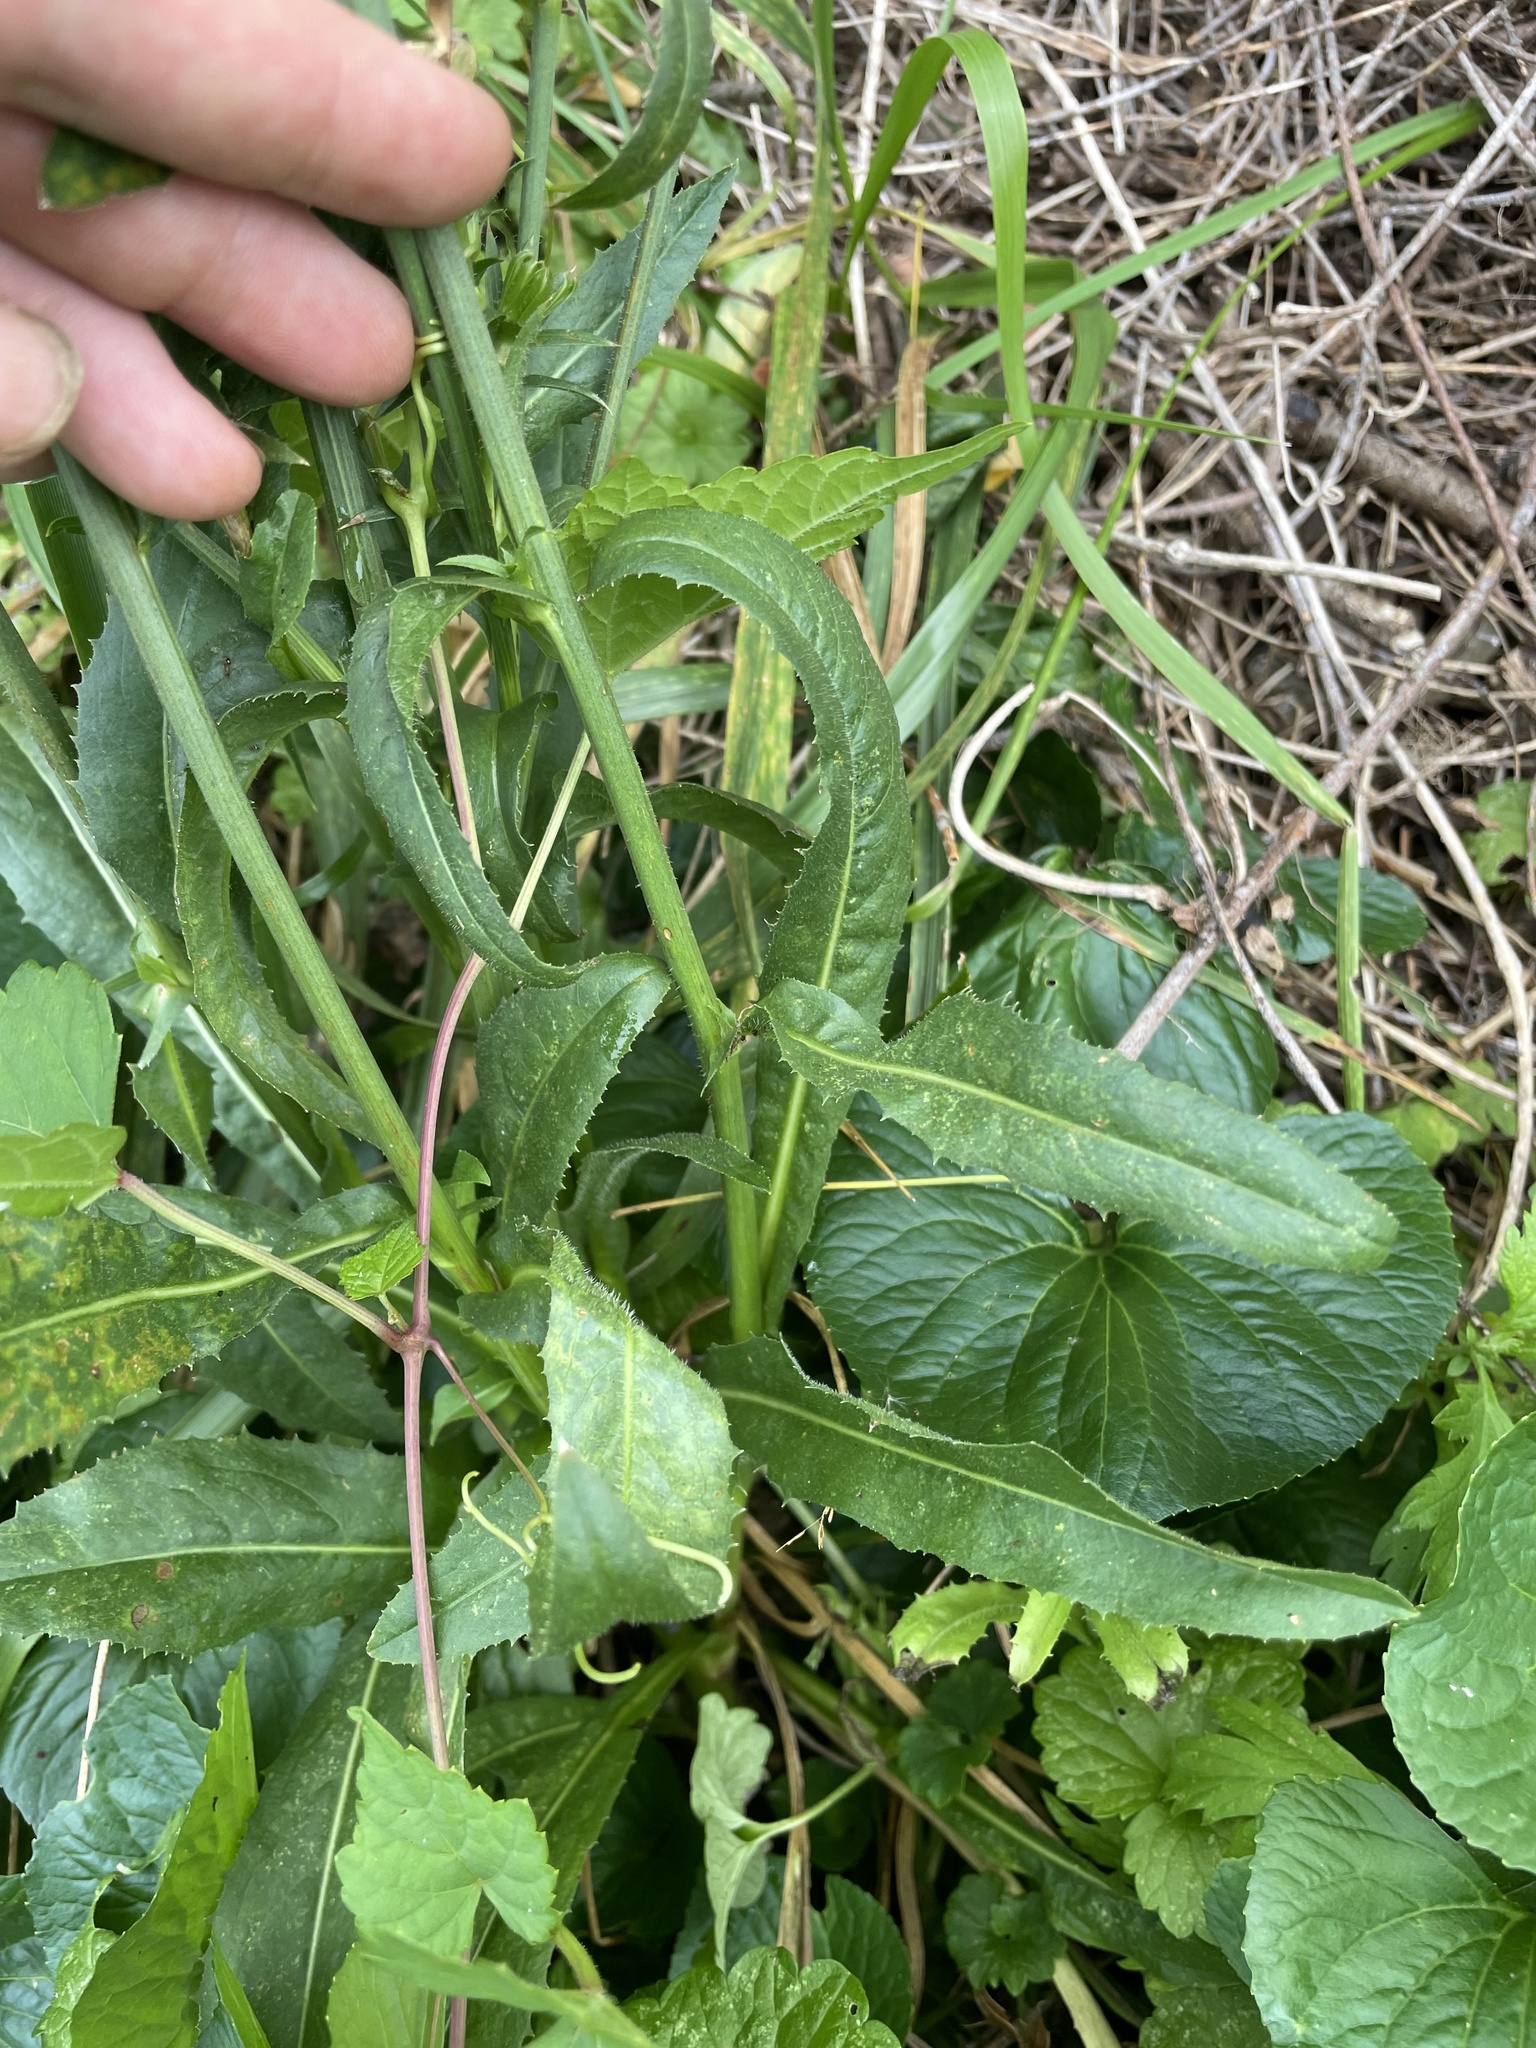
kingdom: Plantae
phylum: Tracheophyta
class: Magnoliopsida
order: Asterales
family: Asteraceae
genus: Cichorium
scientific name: Cichorium intybus
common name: Chicory
